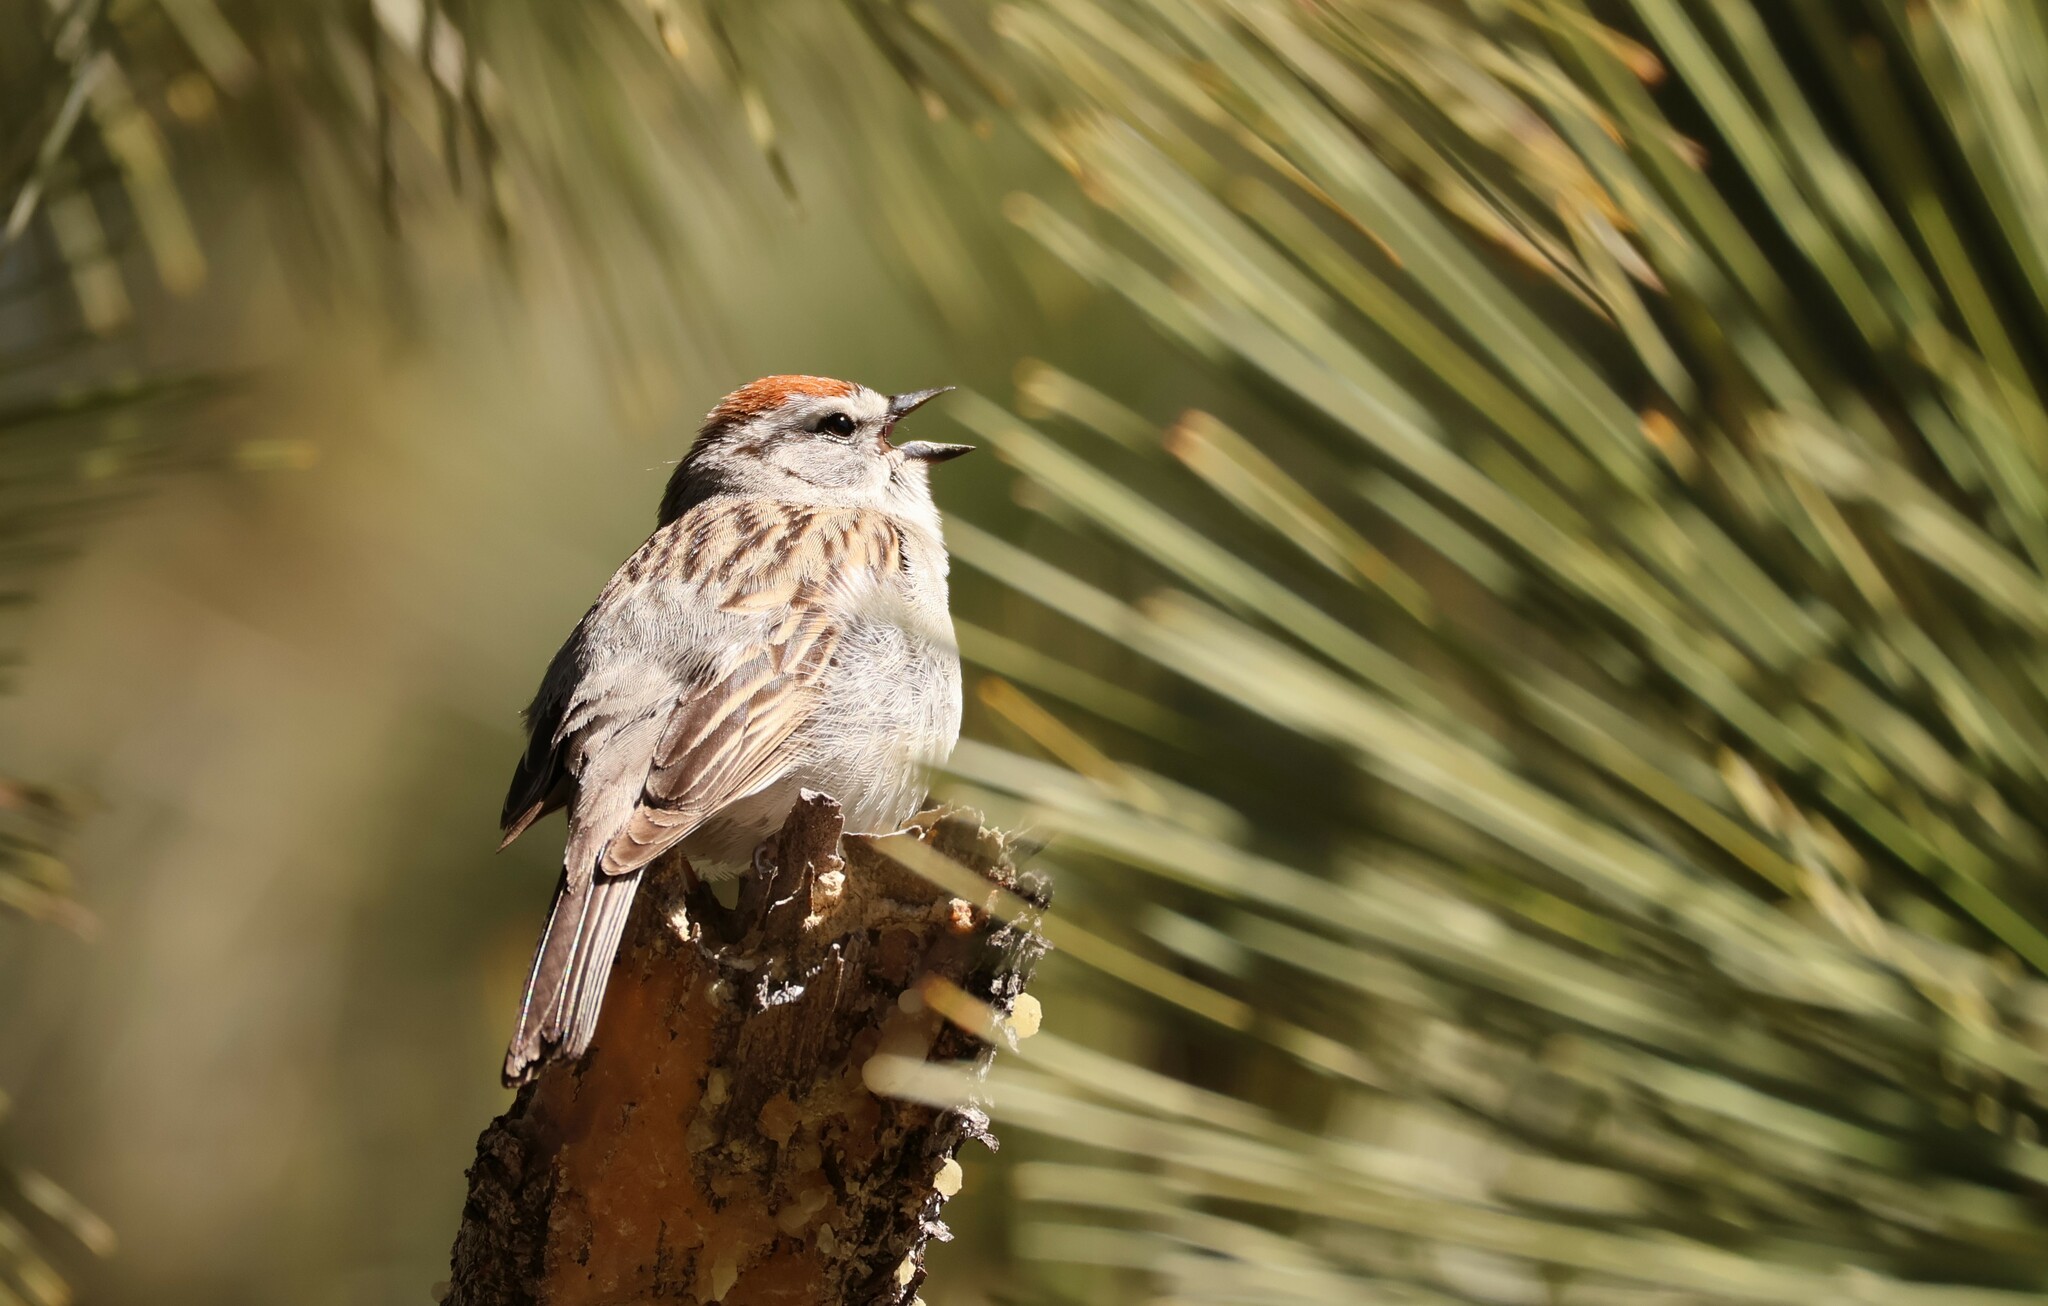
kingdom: Animalia
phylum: Chordata
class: Aves
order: Passeriformes
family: Passerellidae
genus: Spizella
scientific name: Spizella passerina
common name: Chipping sparrow
